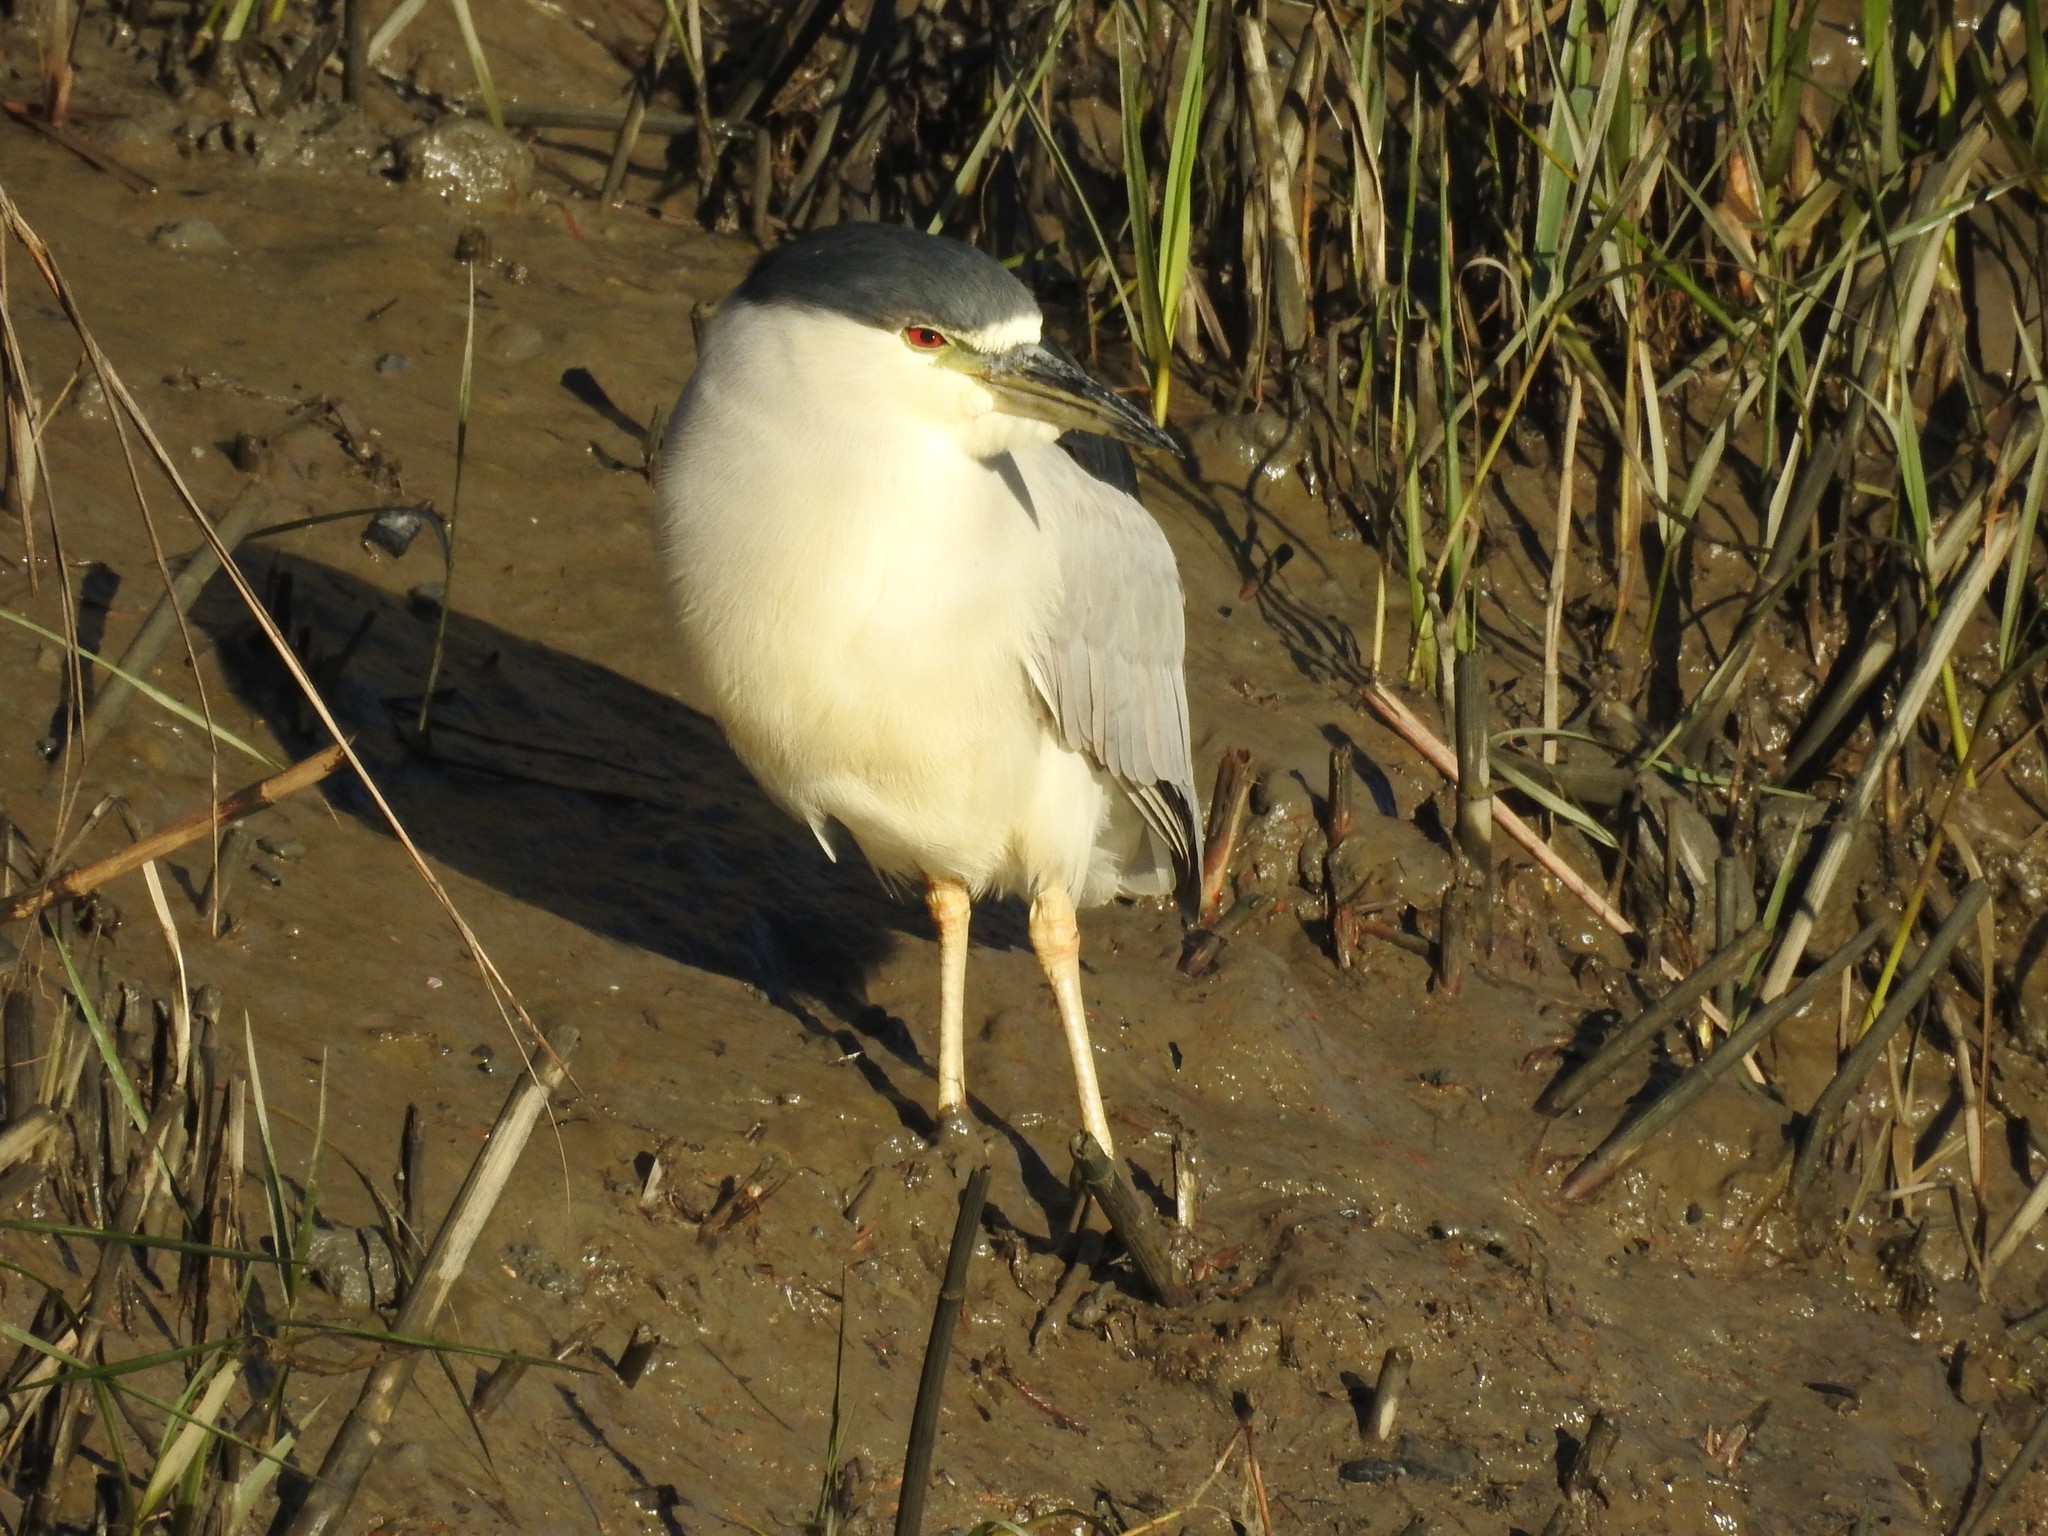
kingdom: Animalia
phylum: Chordata
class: Aves
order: Pelecaniformes
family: Ardeidae
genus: Nycticorax
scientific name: Nycticorax nycticorax
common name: Black-crowned night heron
